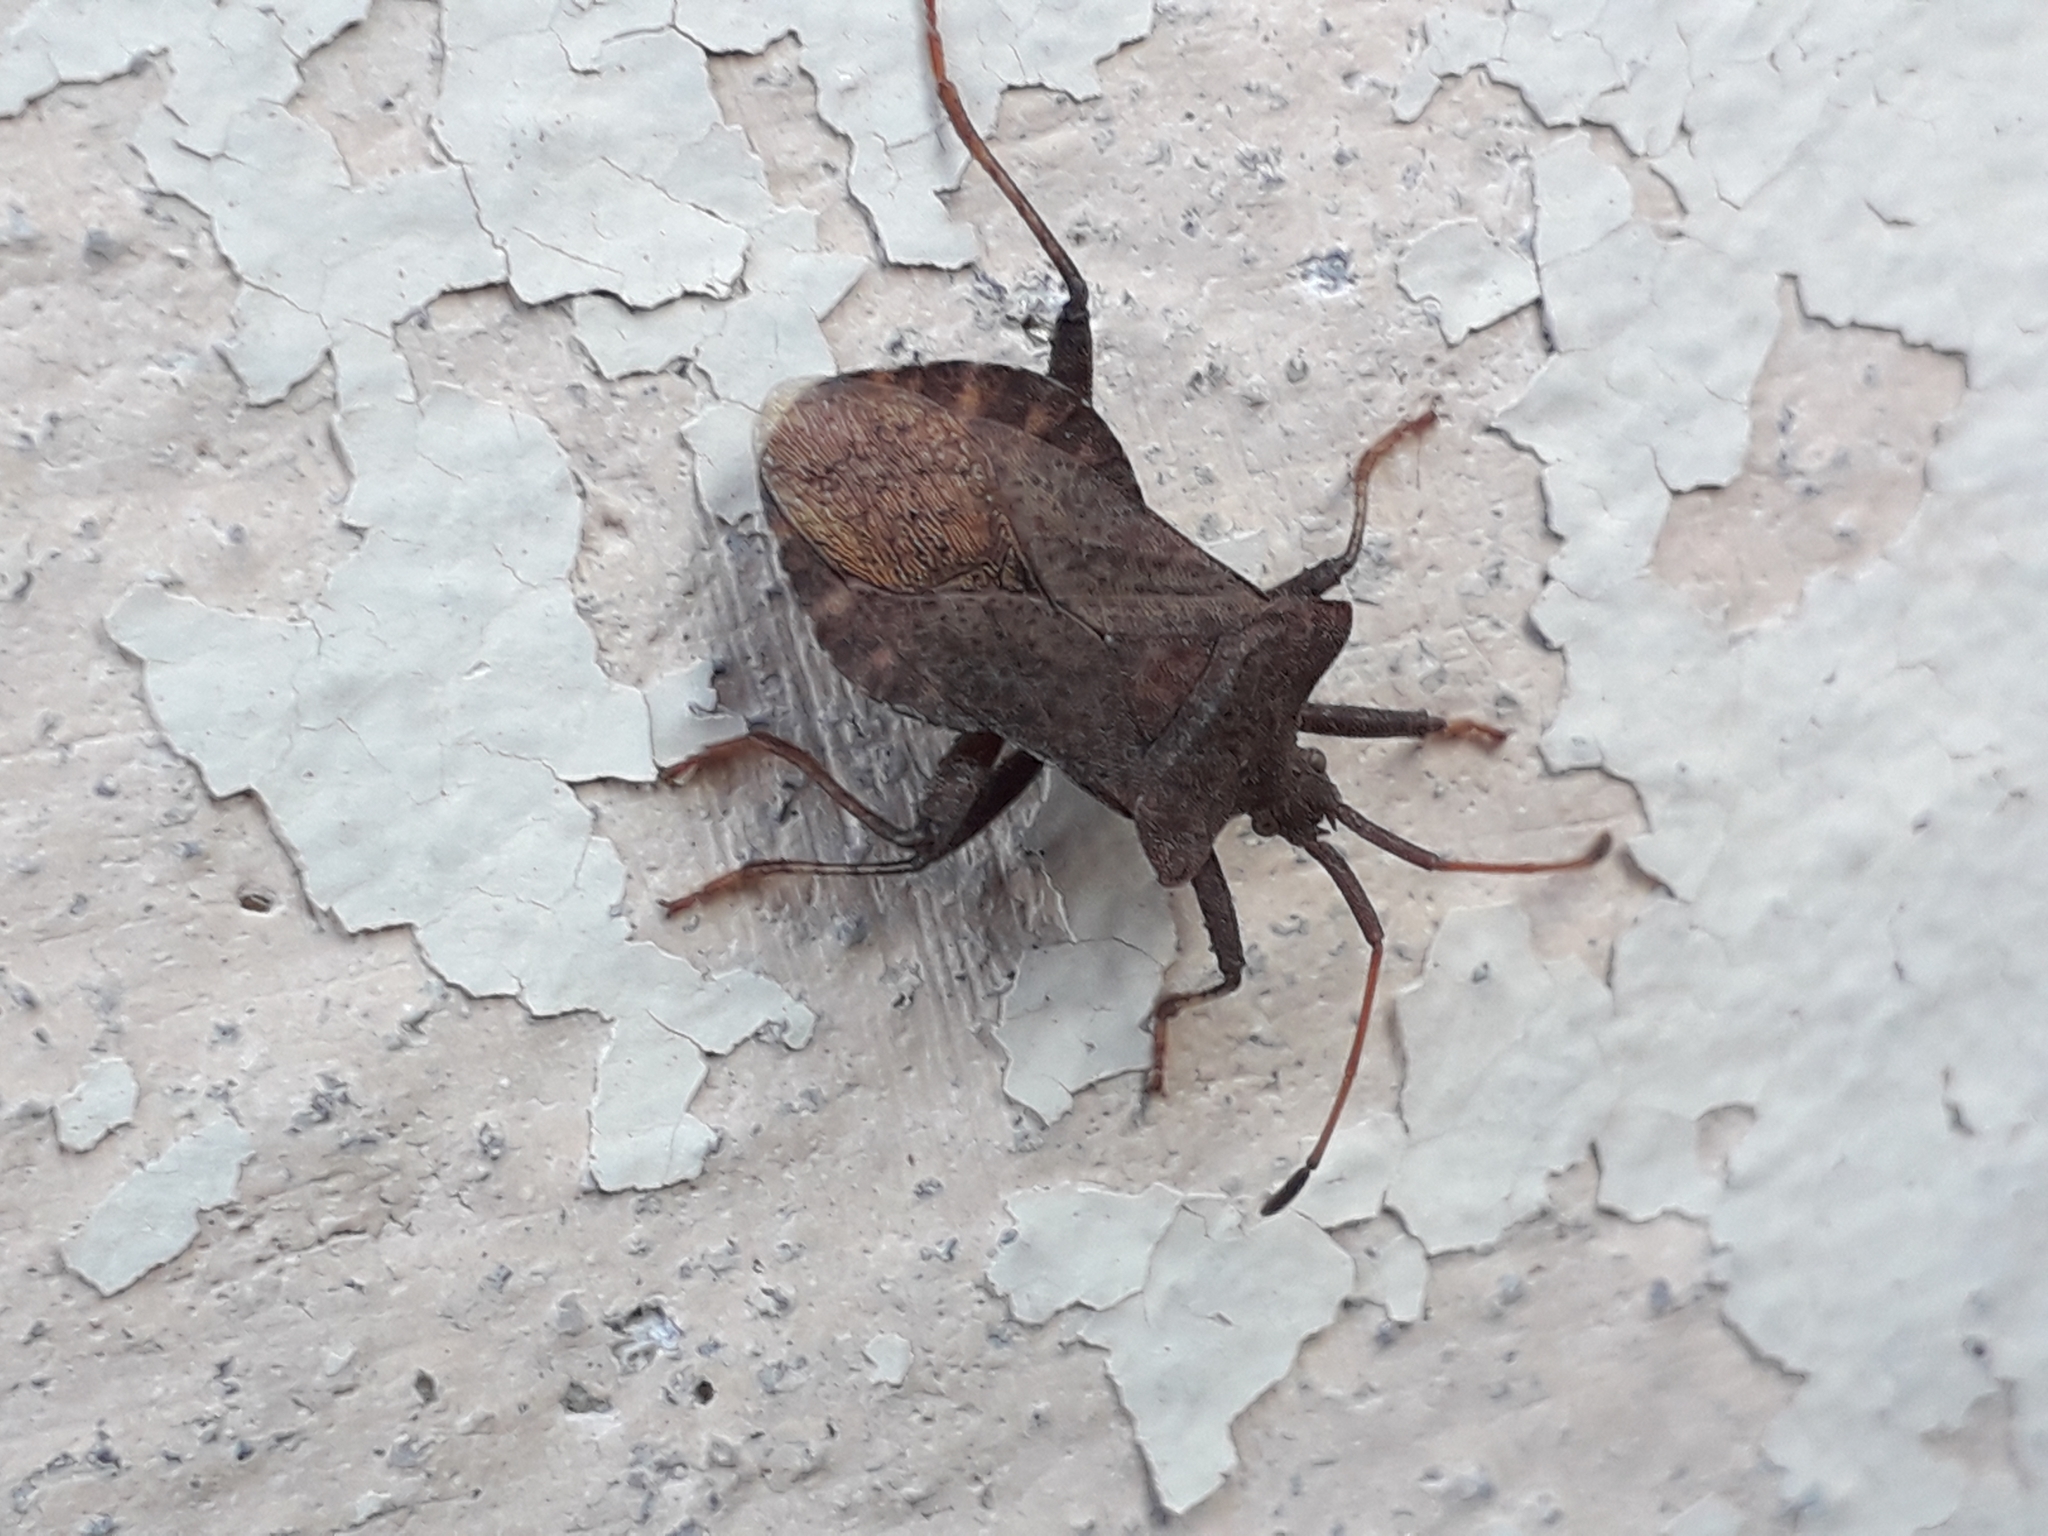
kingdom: Animalia
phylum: Arthropoda
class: Insecta
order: Hemiptera
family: Coreidae
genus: Coreus
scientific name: Coreus marginatus
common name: Dock bug
